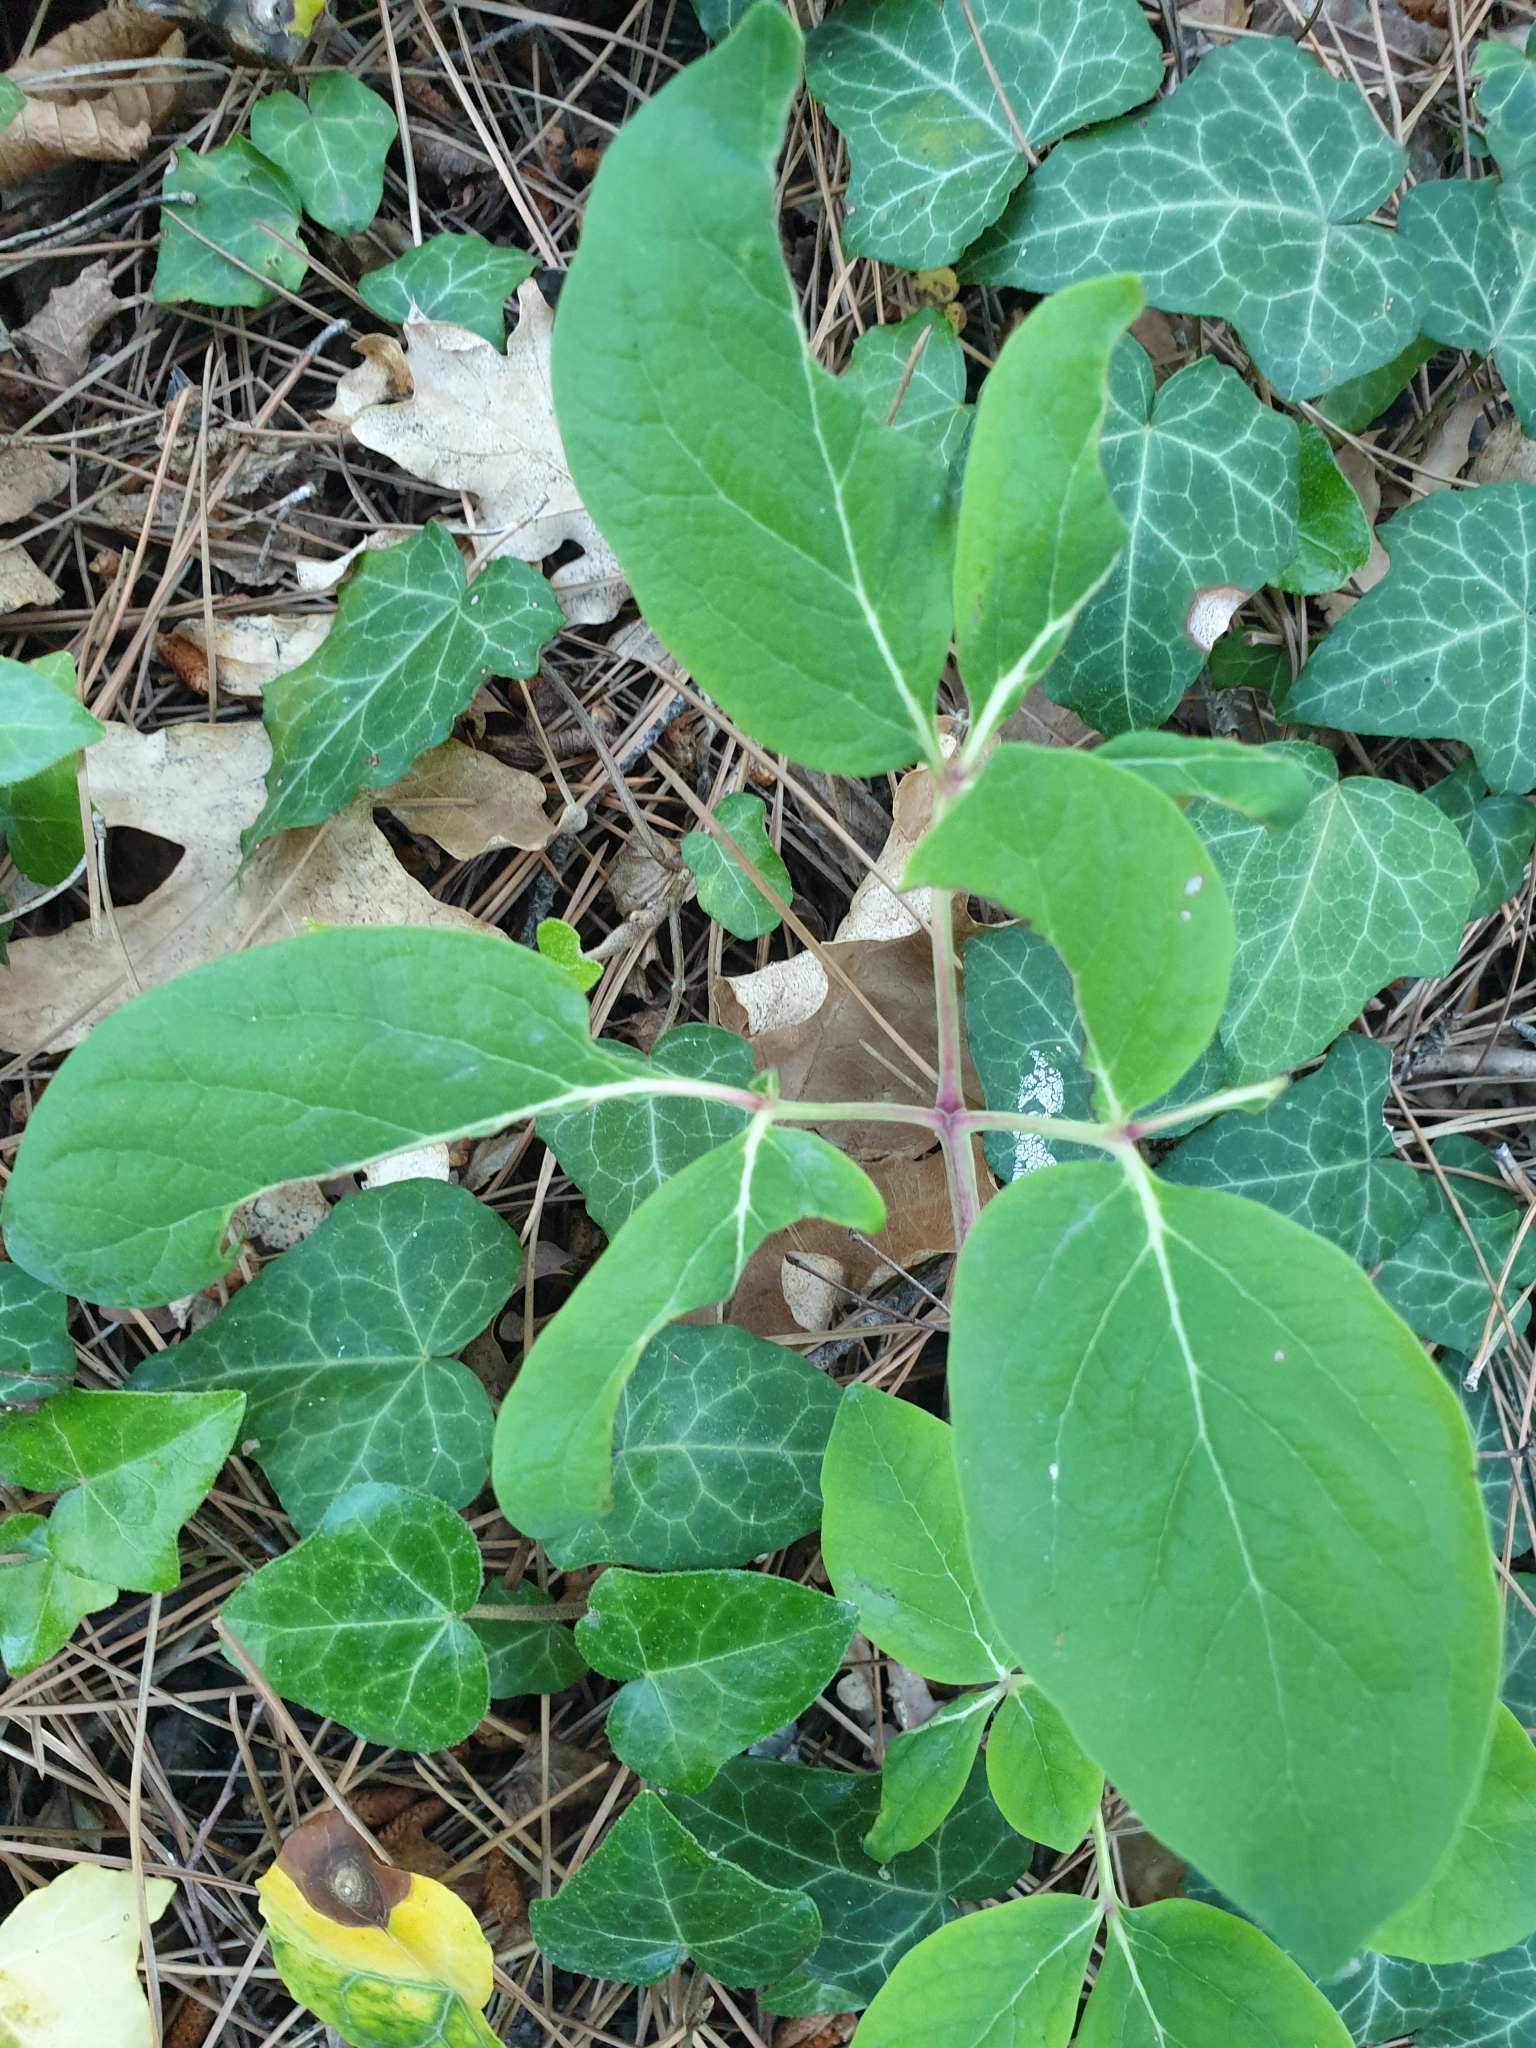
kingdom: Plantae
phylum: Tracheophyta
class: Magnoliopsida
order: Saxifragales
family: Paeoniaceae
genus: Paeonia
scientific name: Paeonia caucasica
